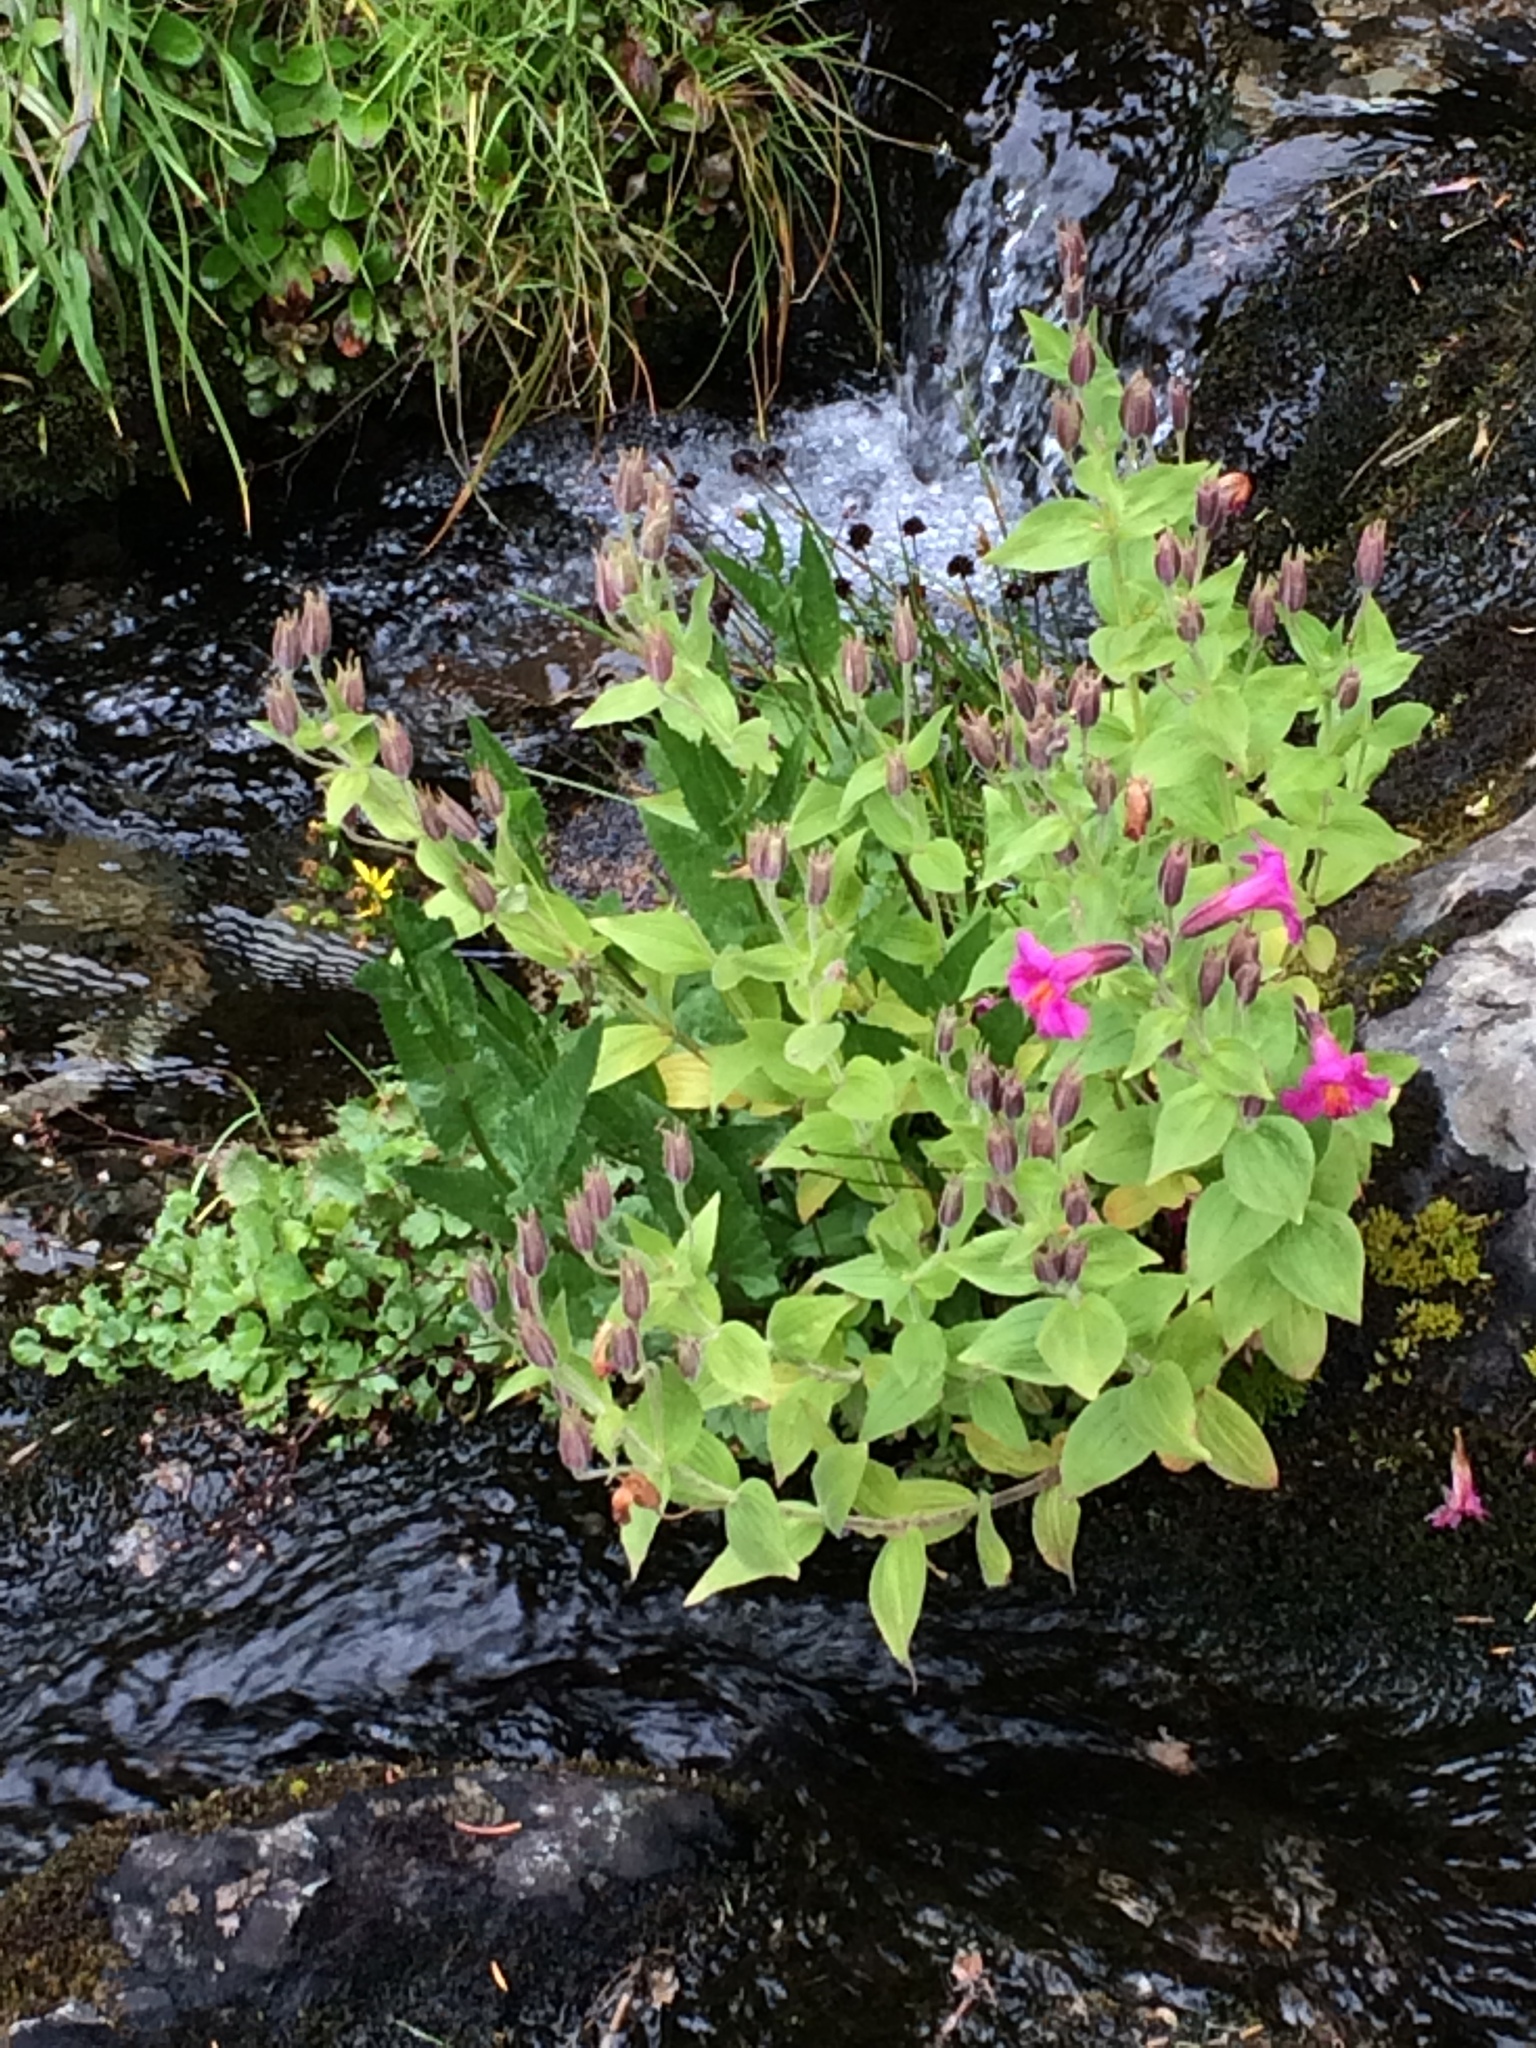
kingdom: Plantae
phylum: Tracheophyta
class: Magnoliopsida
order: Lamiales
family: Phrymaceae
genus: Erythranthe
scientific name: Erythranthe lewisii
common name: Lewis's monkey-flower
